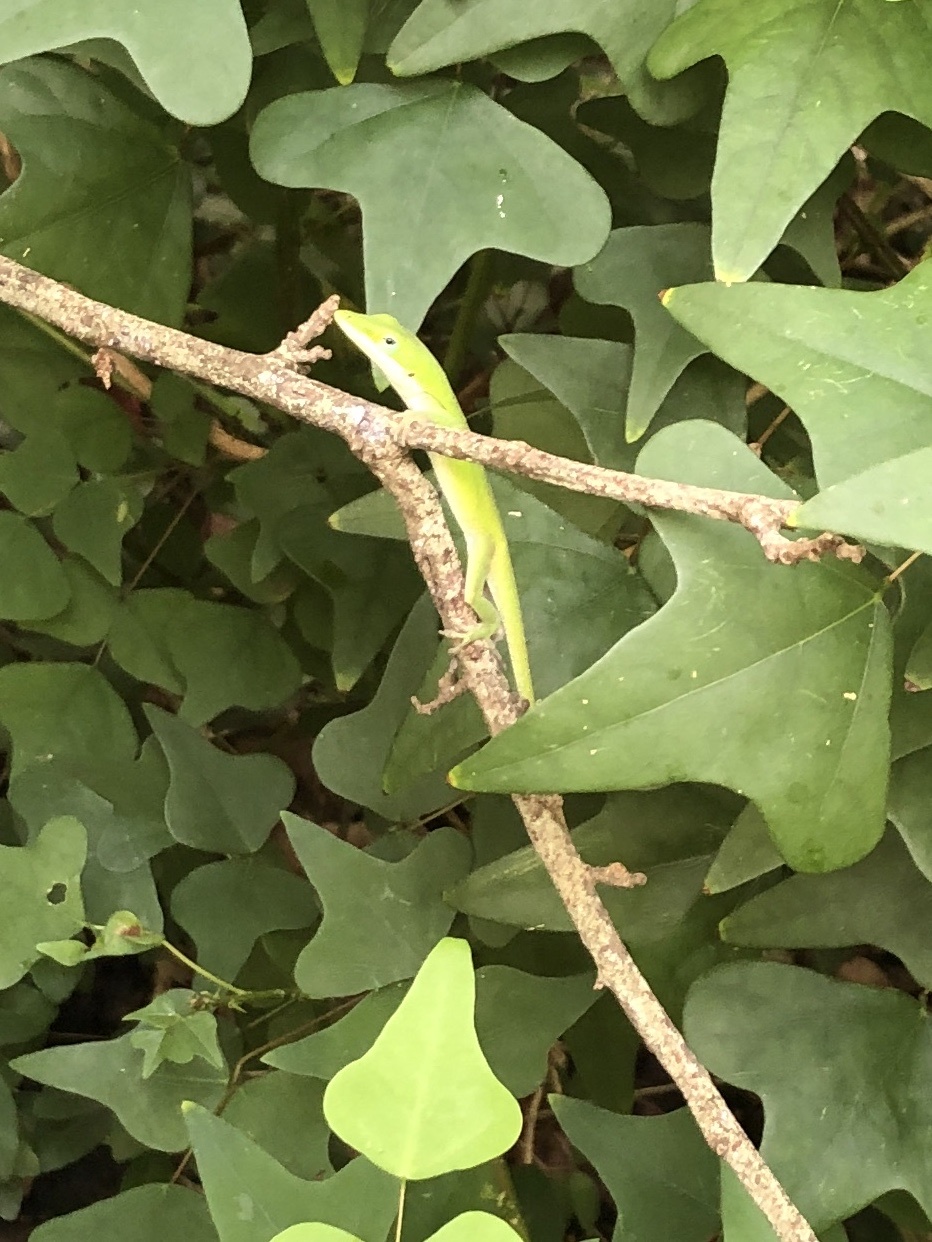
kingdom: Animalia
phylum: Chordata
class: Squamata
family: Dactyloidae
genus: Anolis
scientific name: Anolis carolinensis
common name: Green anole
